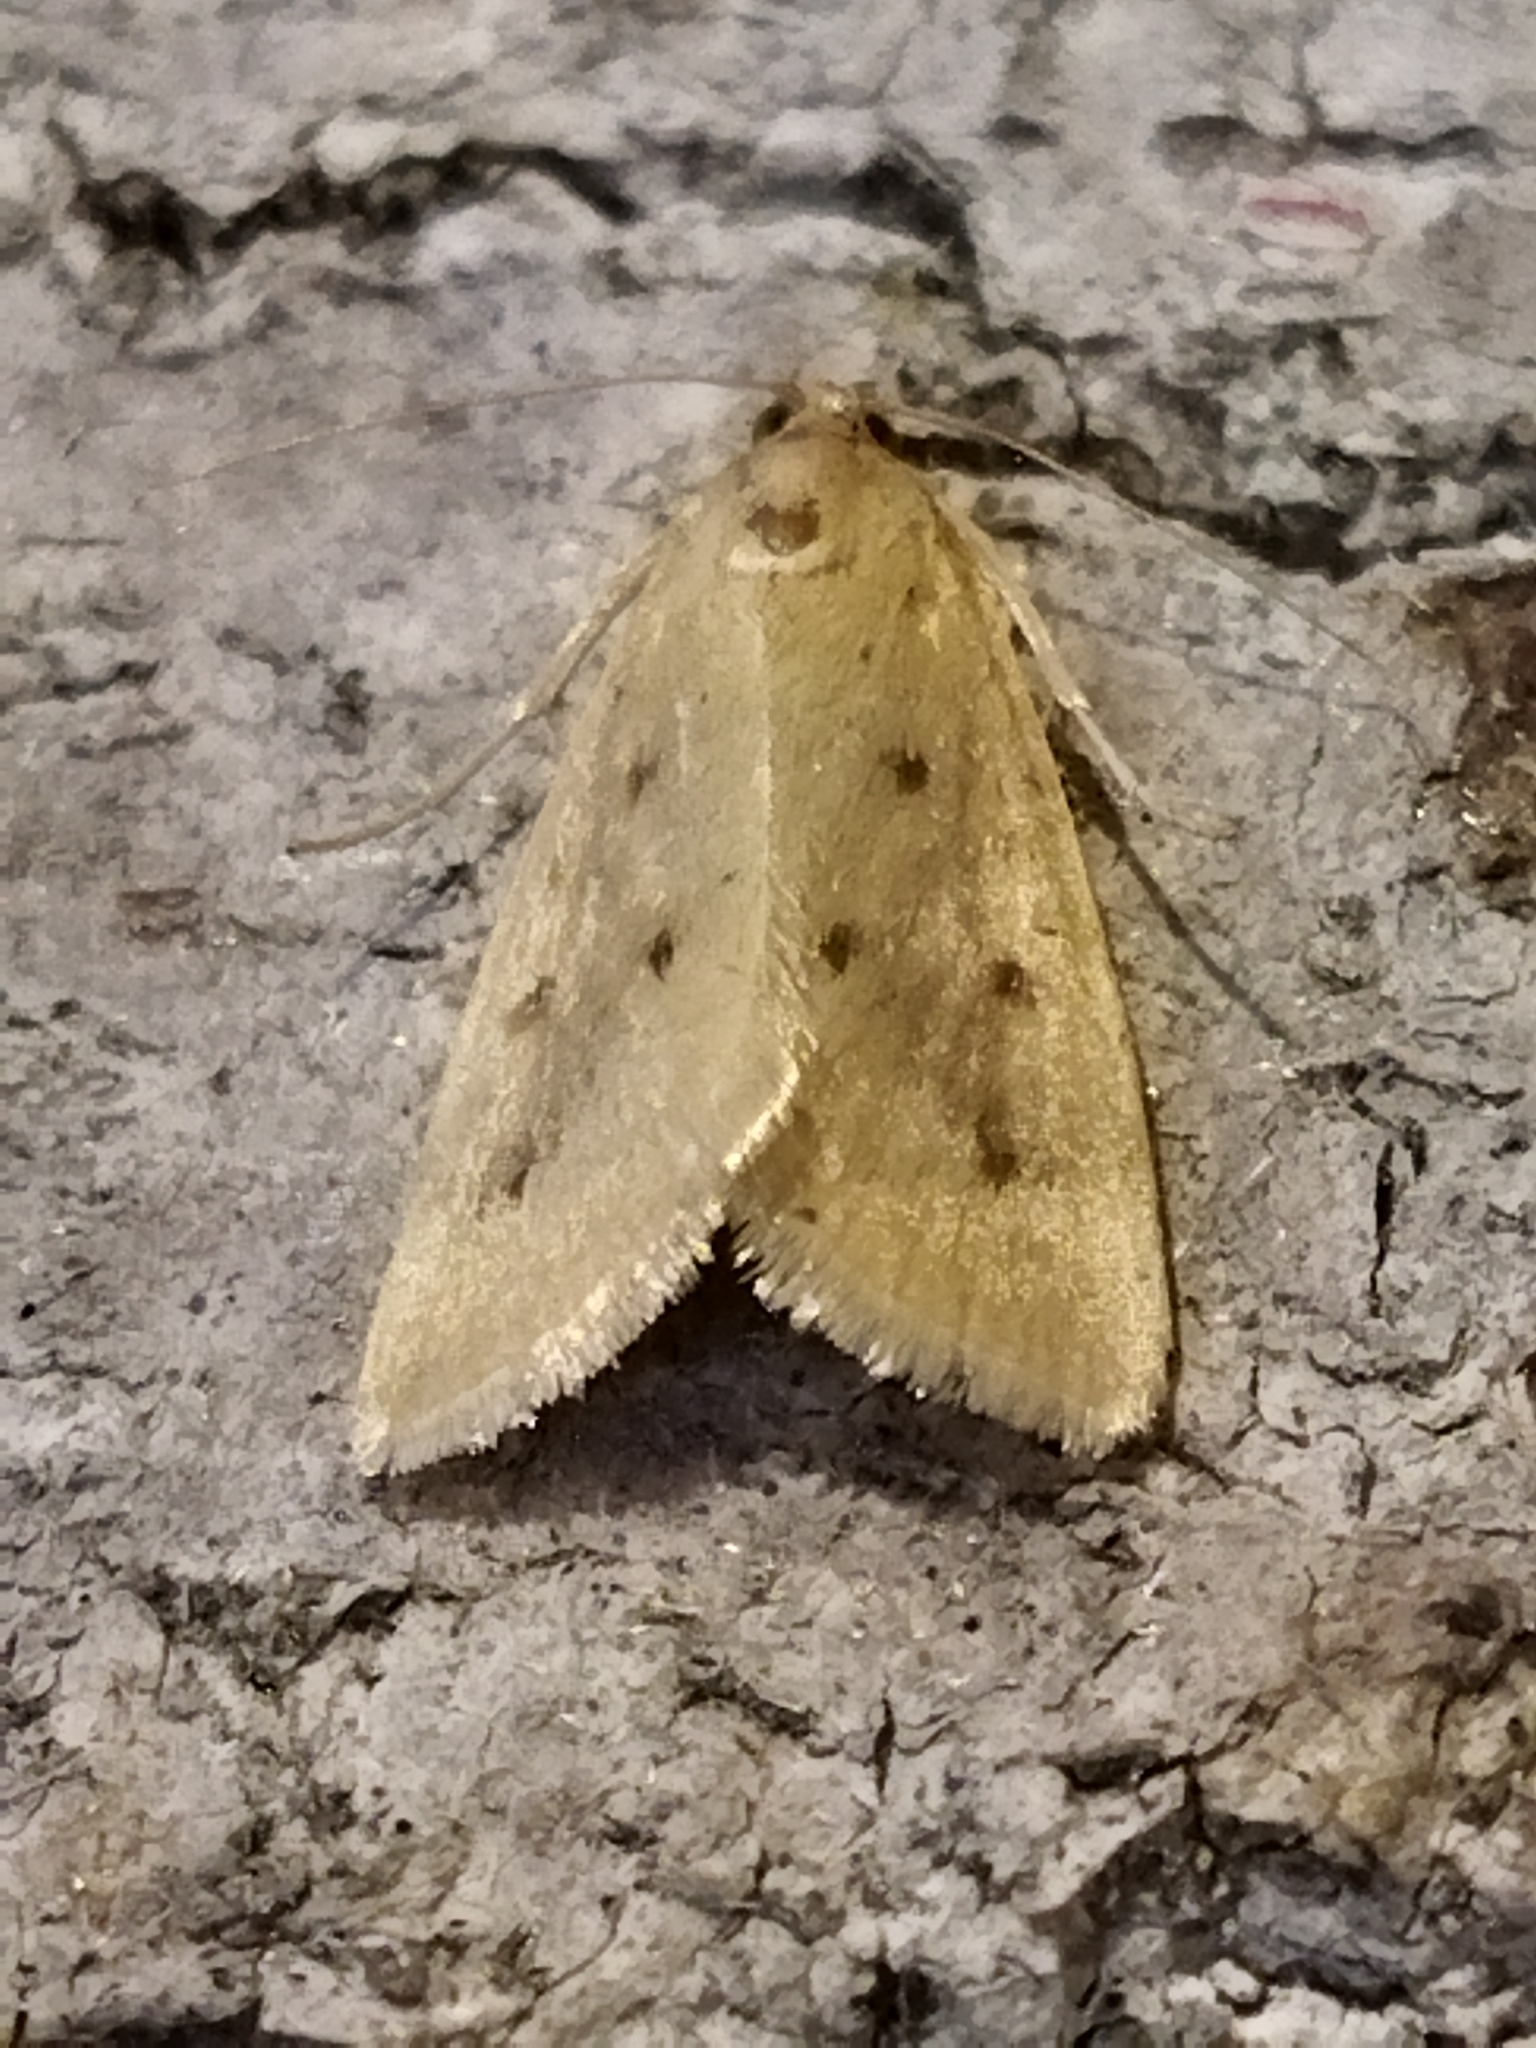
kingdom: Animalia
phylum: Arthropoda
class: Insecta
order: Lepidoptera
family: Crambidae
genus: Achyra
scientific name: Achyra nudalis
